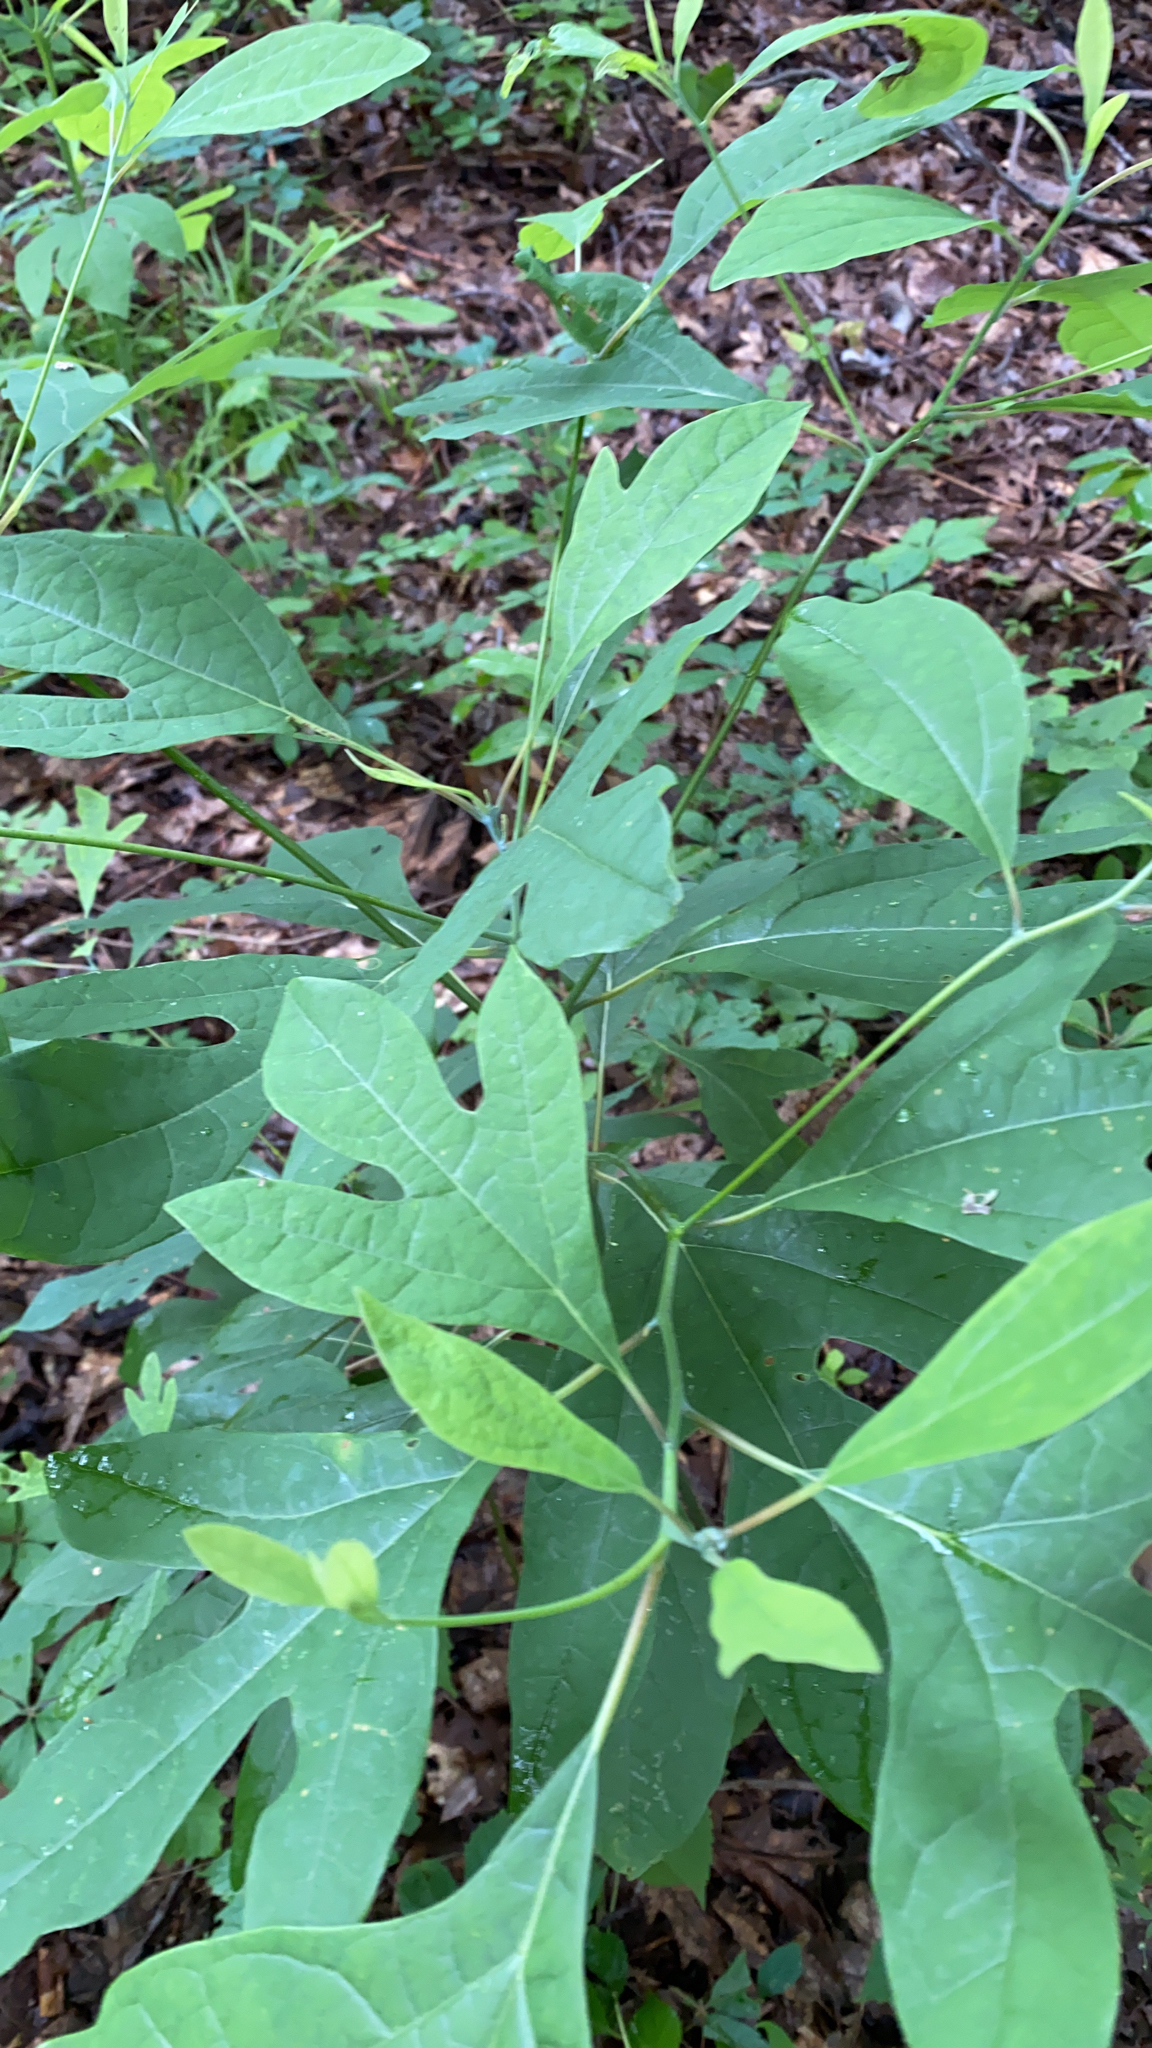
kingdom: Plantae
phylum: Tracheophyta
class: Magnoliopsida
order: Laurales
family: Lauraceae
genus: Sassafras
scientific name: Sassafras albidum
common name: Sassafras
